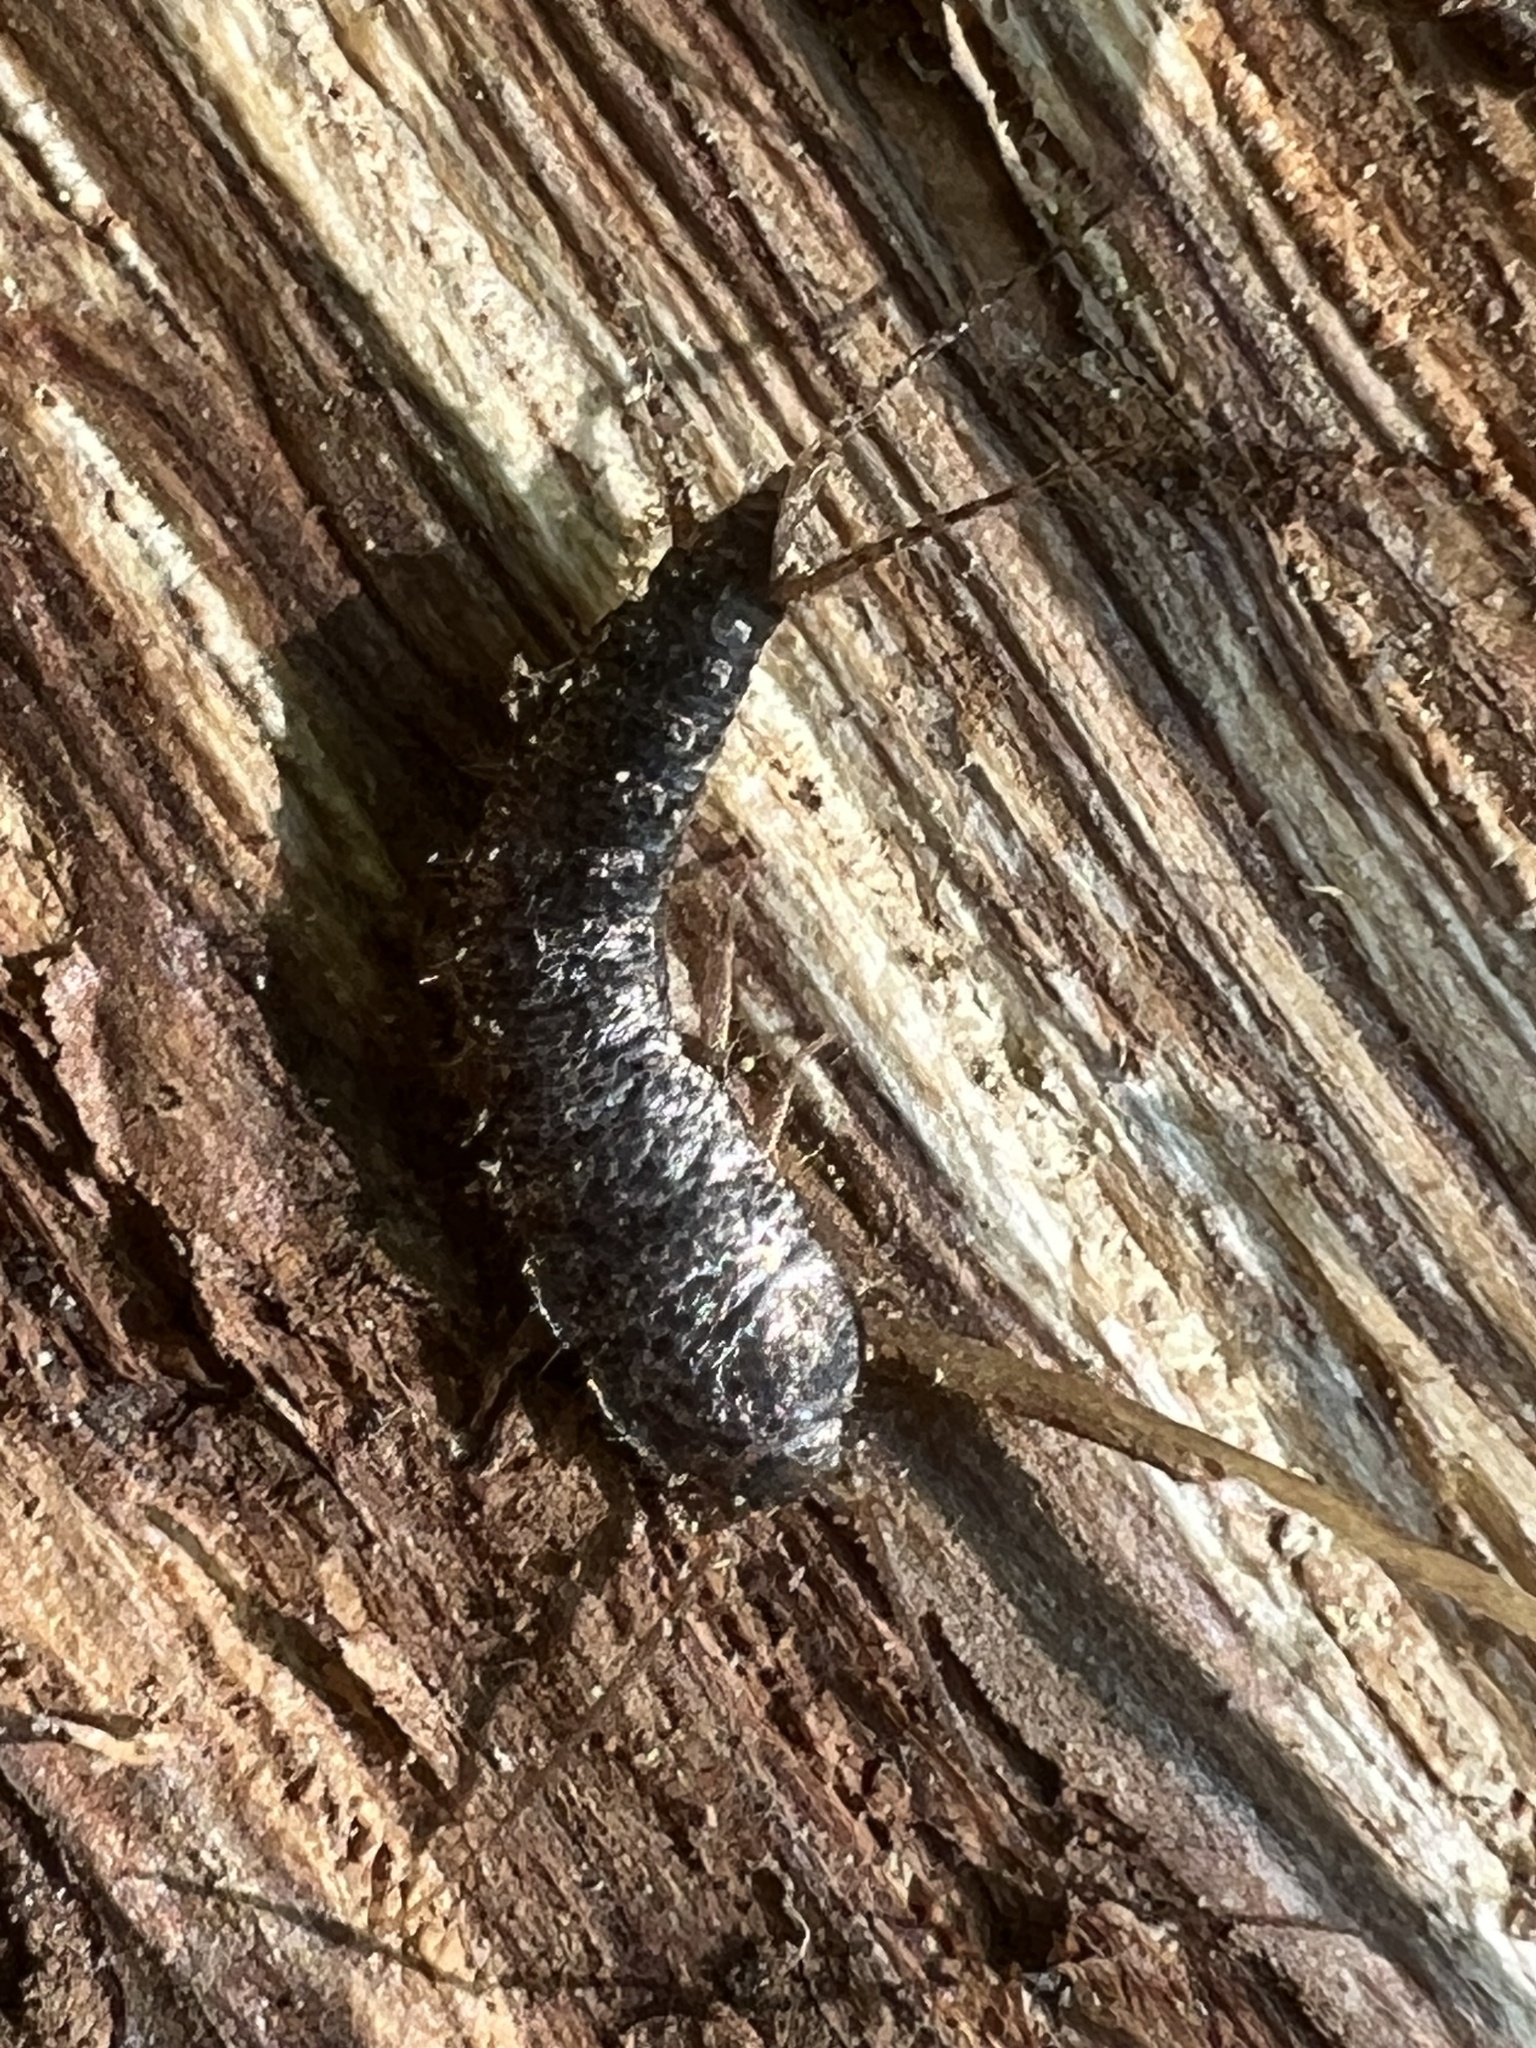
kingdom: Animalia
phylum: Arthropoda
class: Insecta
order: Zygentoma
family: Lepismatidae
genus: Allacrotelsa
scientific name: Allacrotelsa spinulata
